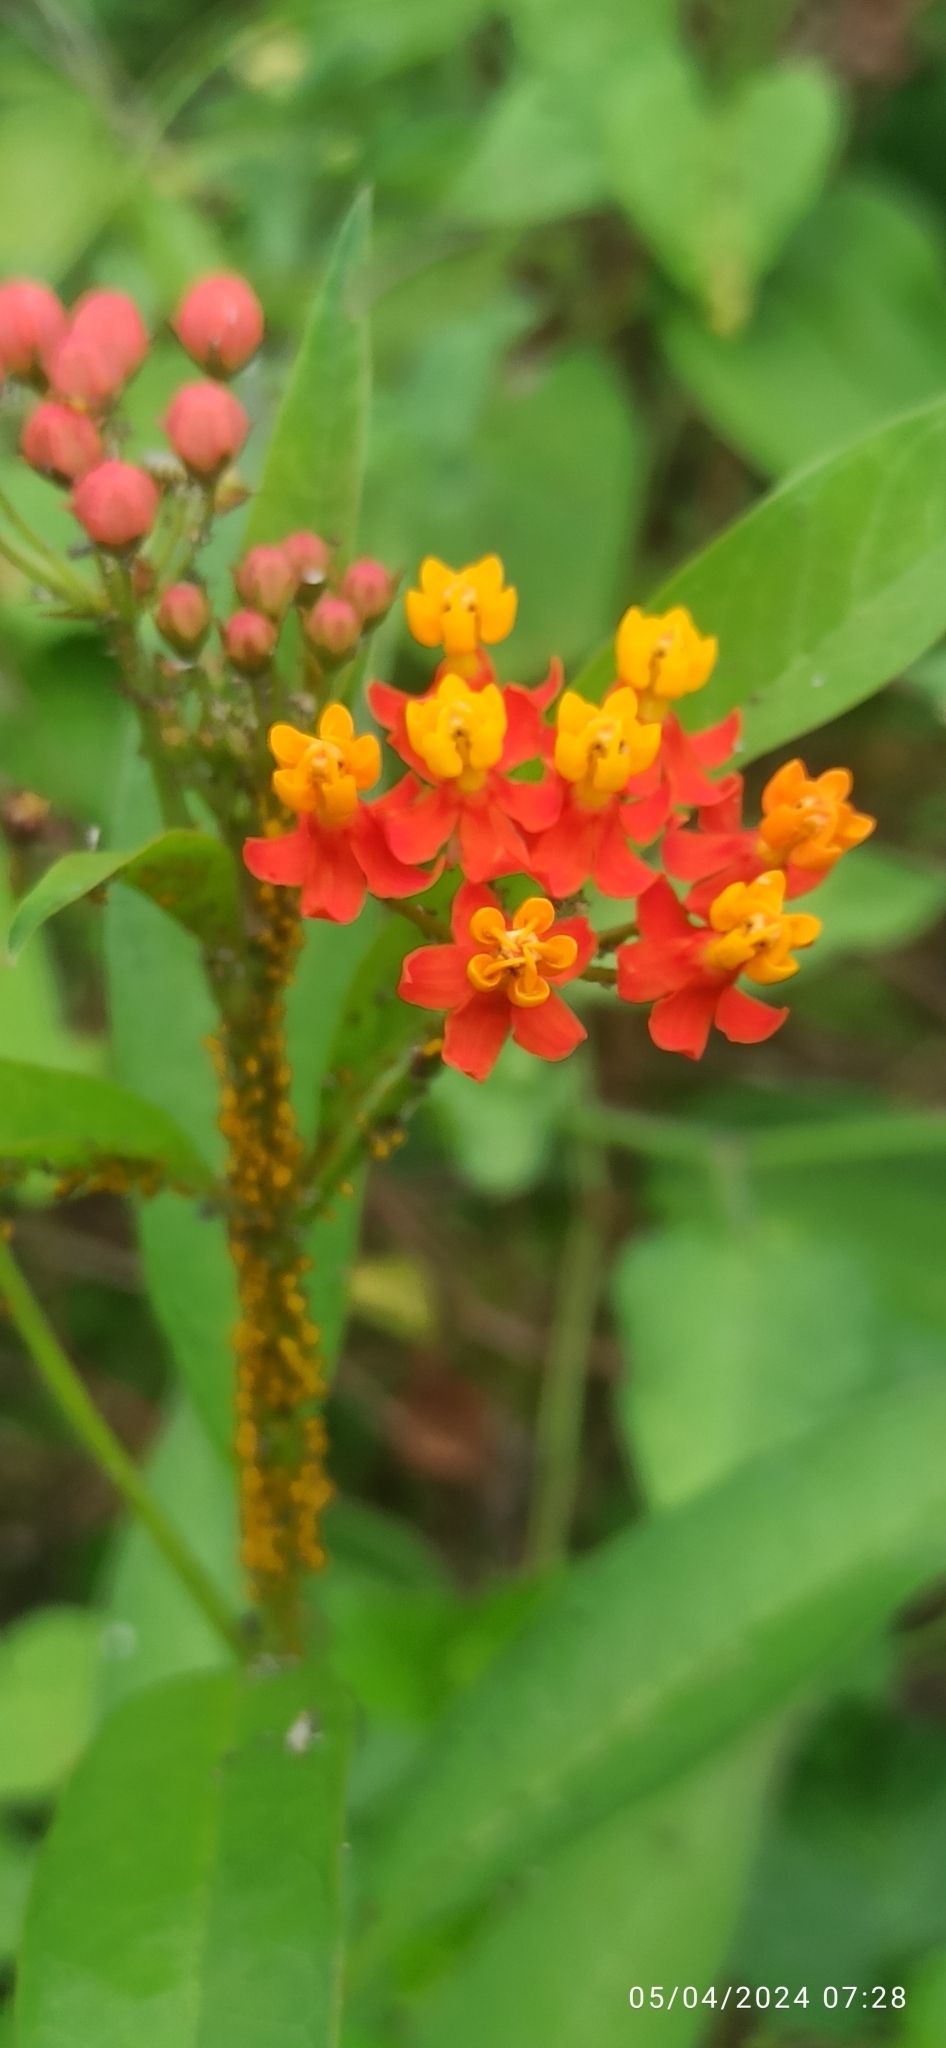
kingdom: Plantae
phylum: Tracheophyta
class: Magnoliopsida
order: Gentianales
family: Apocynaceae
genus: Asclepias
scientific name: Asclepias curassavica
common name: Bloodflower
